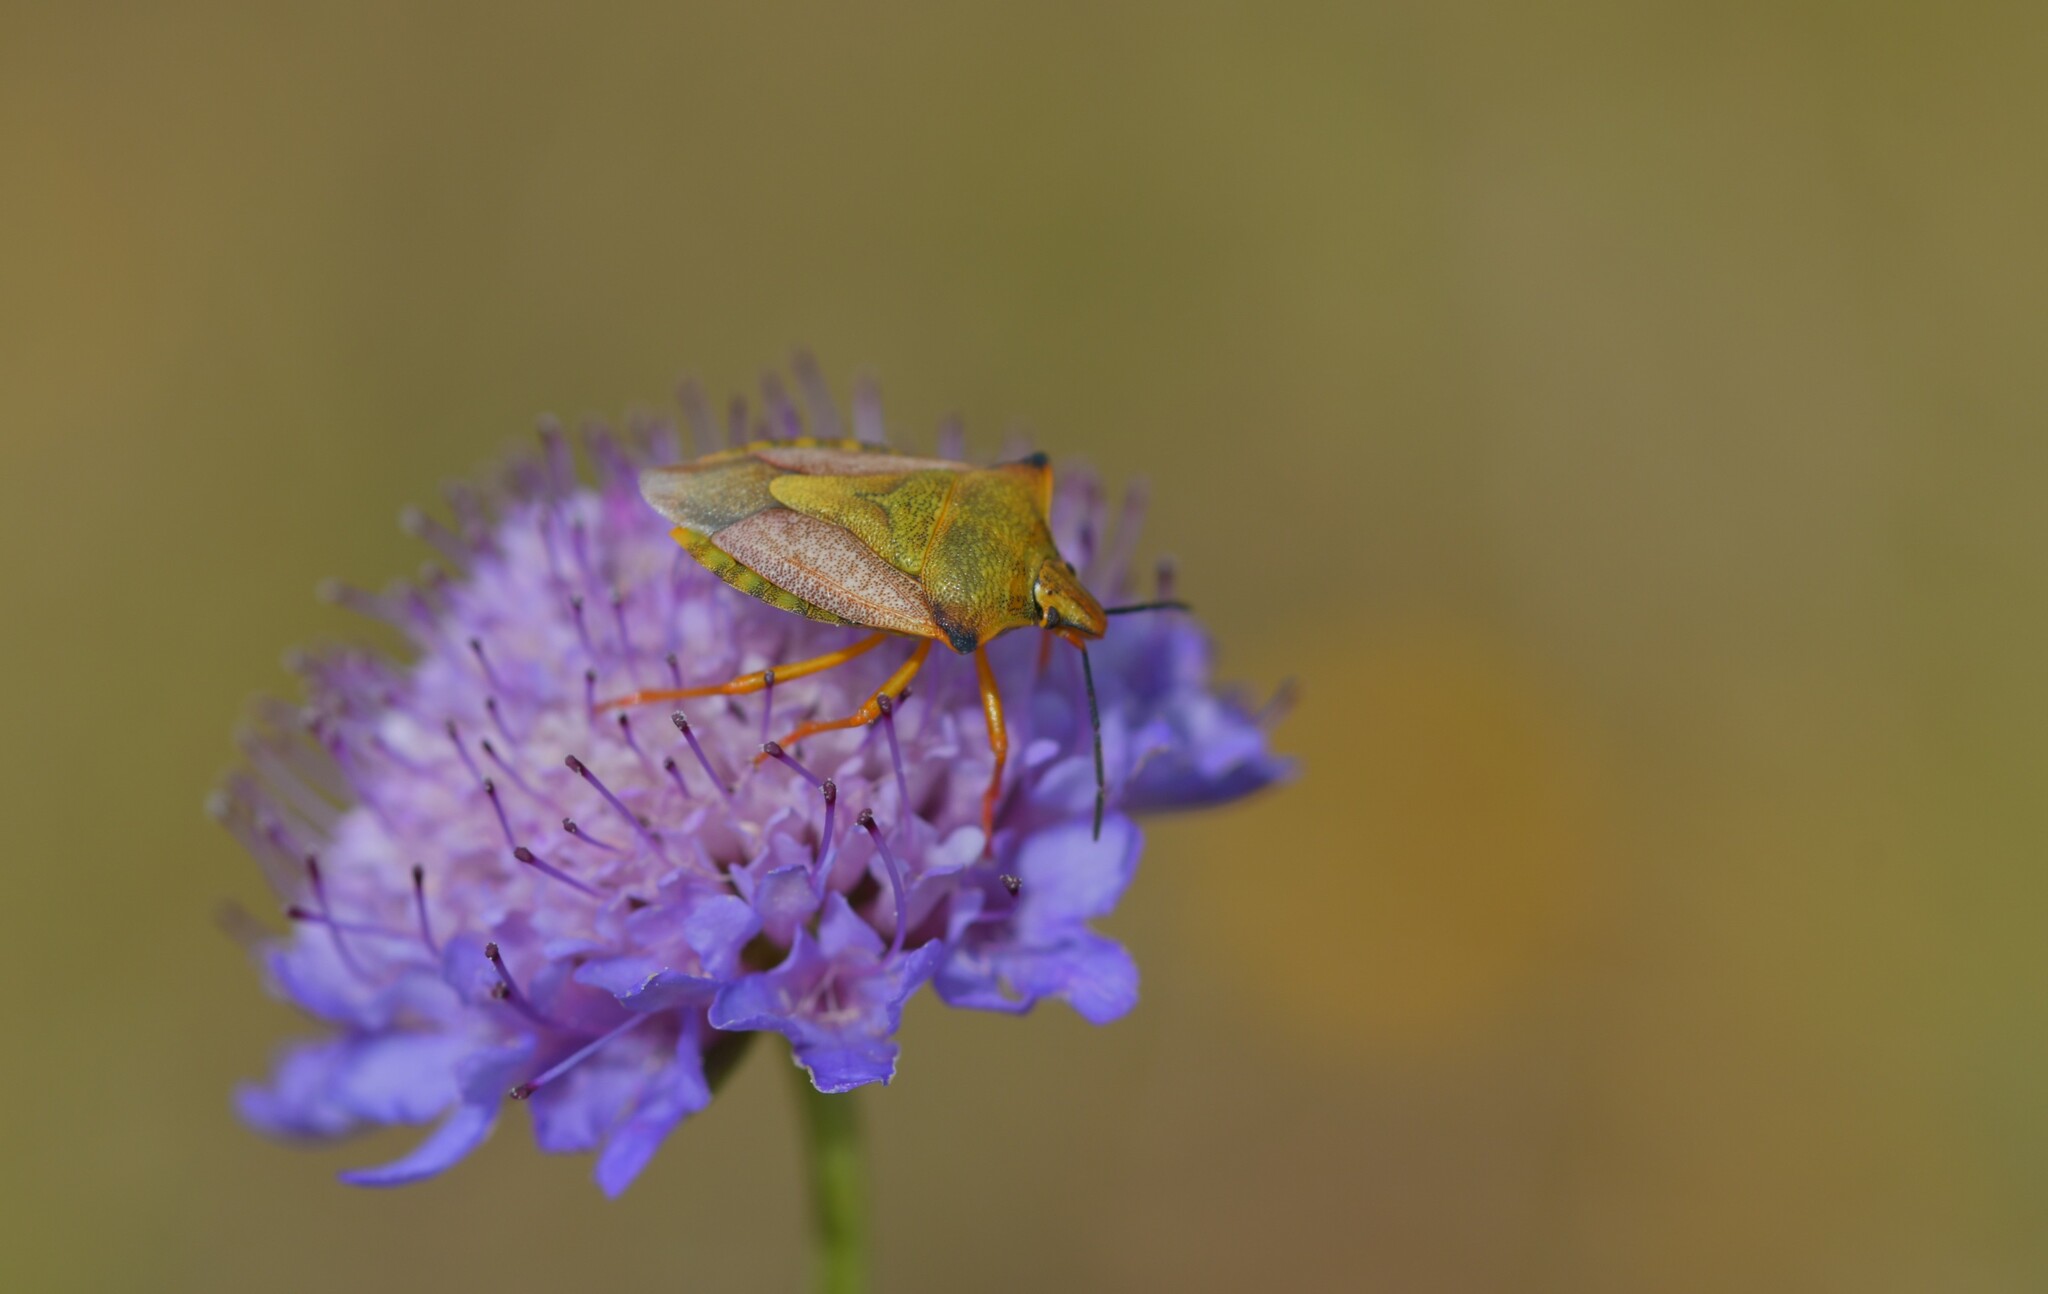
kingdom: Animalia
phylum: Arthropoda
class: Insecta
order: Hemiptera
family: Pentatomidae
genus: Carpocoris
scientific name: Carpocoris mediterraneus
